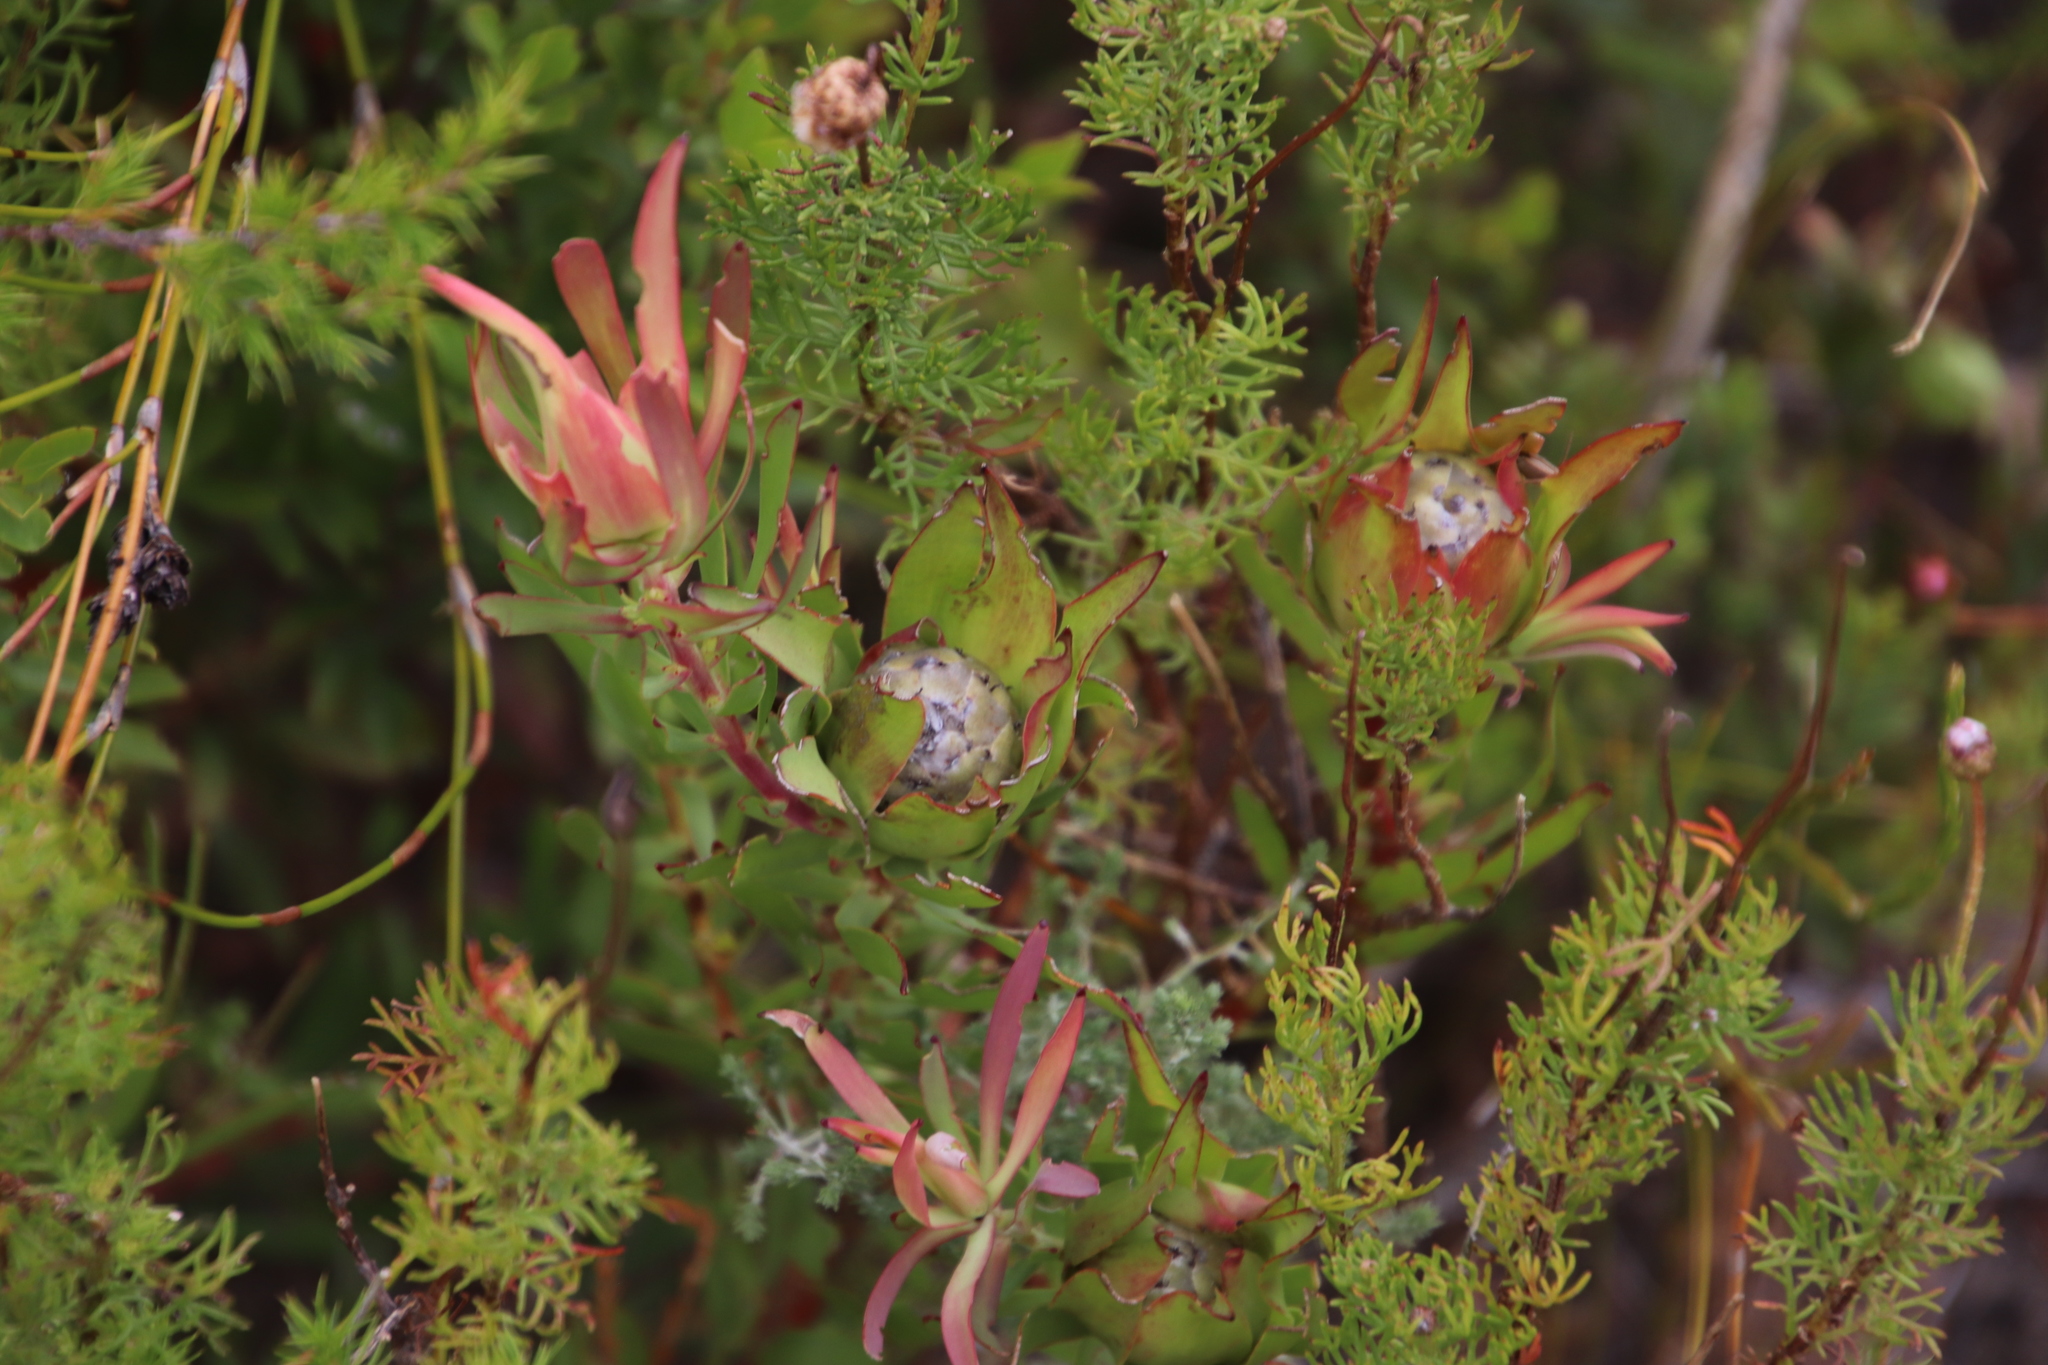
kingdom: Plantae
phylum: Tracheophyta
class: Magnoliopsida
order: Proteales
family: Proteaceae
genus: Leucadendron
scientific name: Leucadendron salignum
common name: Common sunshine conebush
